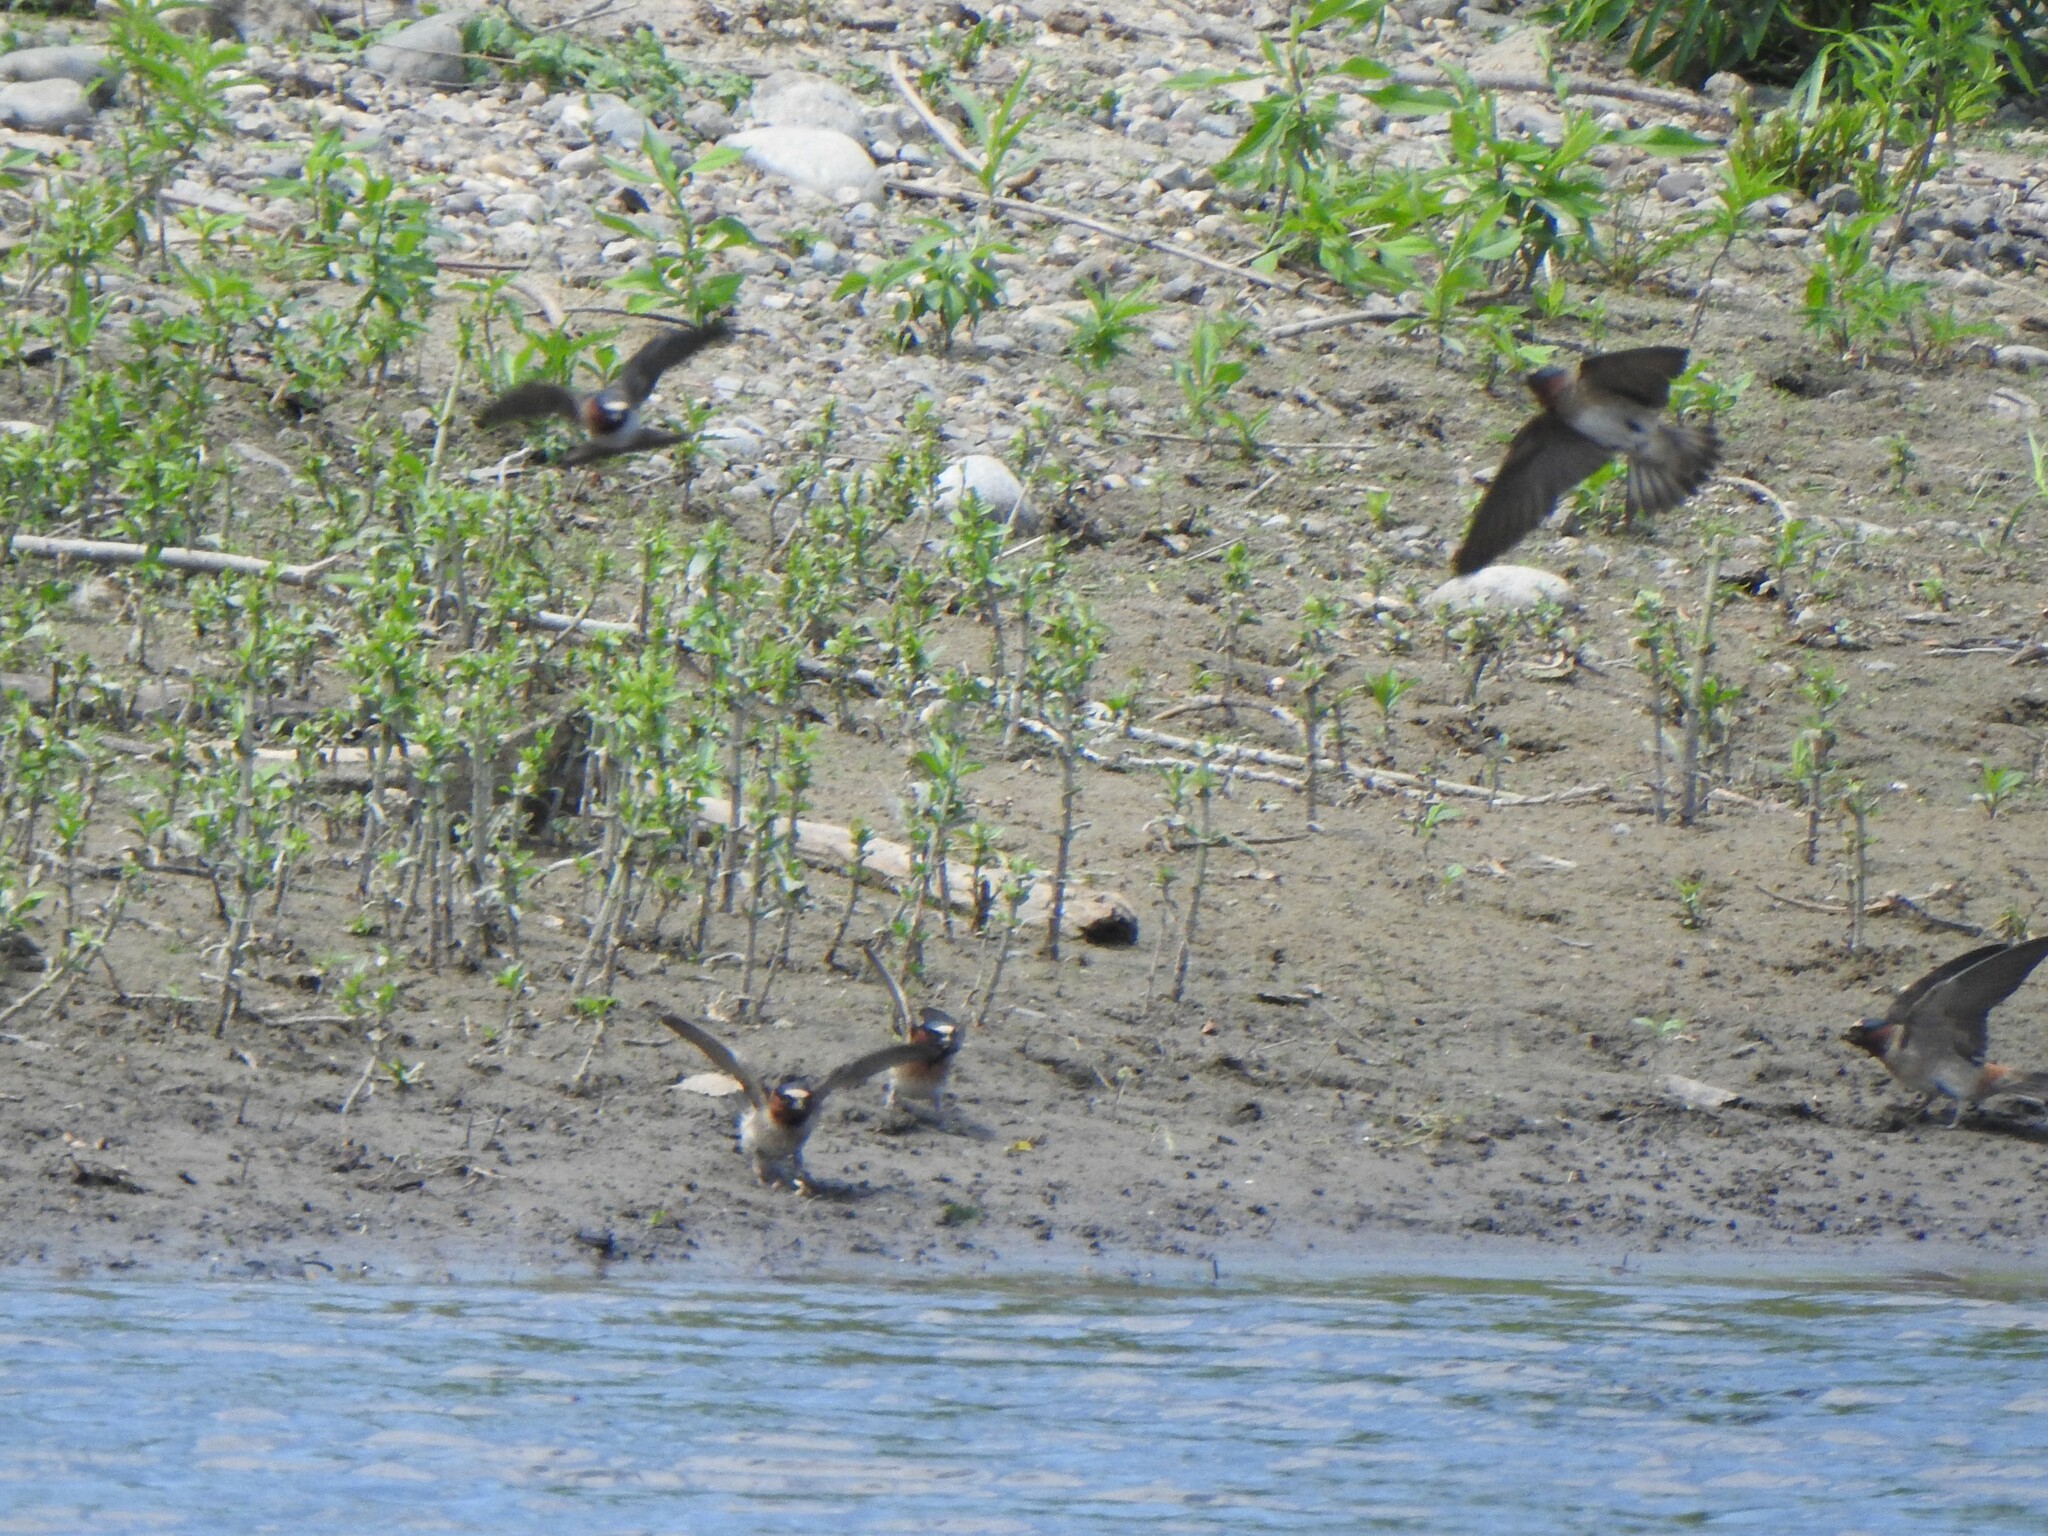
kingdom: Animalia
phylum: Chordata
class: Aves
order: Passeriformes
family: Hirundinidae
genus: Petrochelidon
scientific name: Petrochelidon pyrrhonota
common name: American cliff swallow
